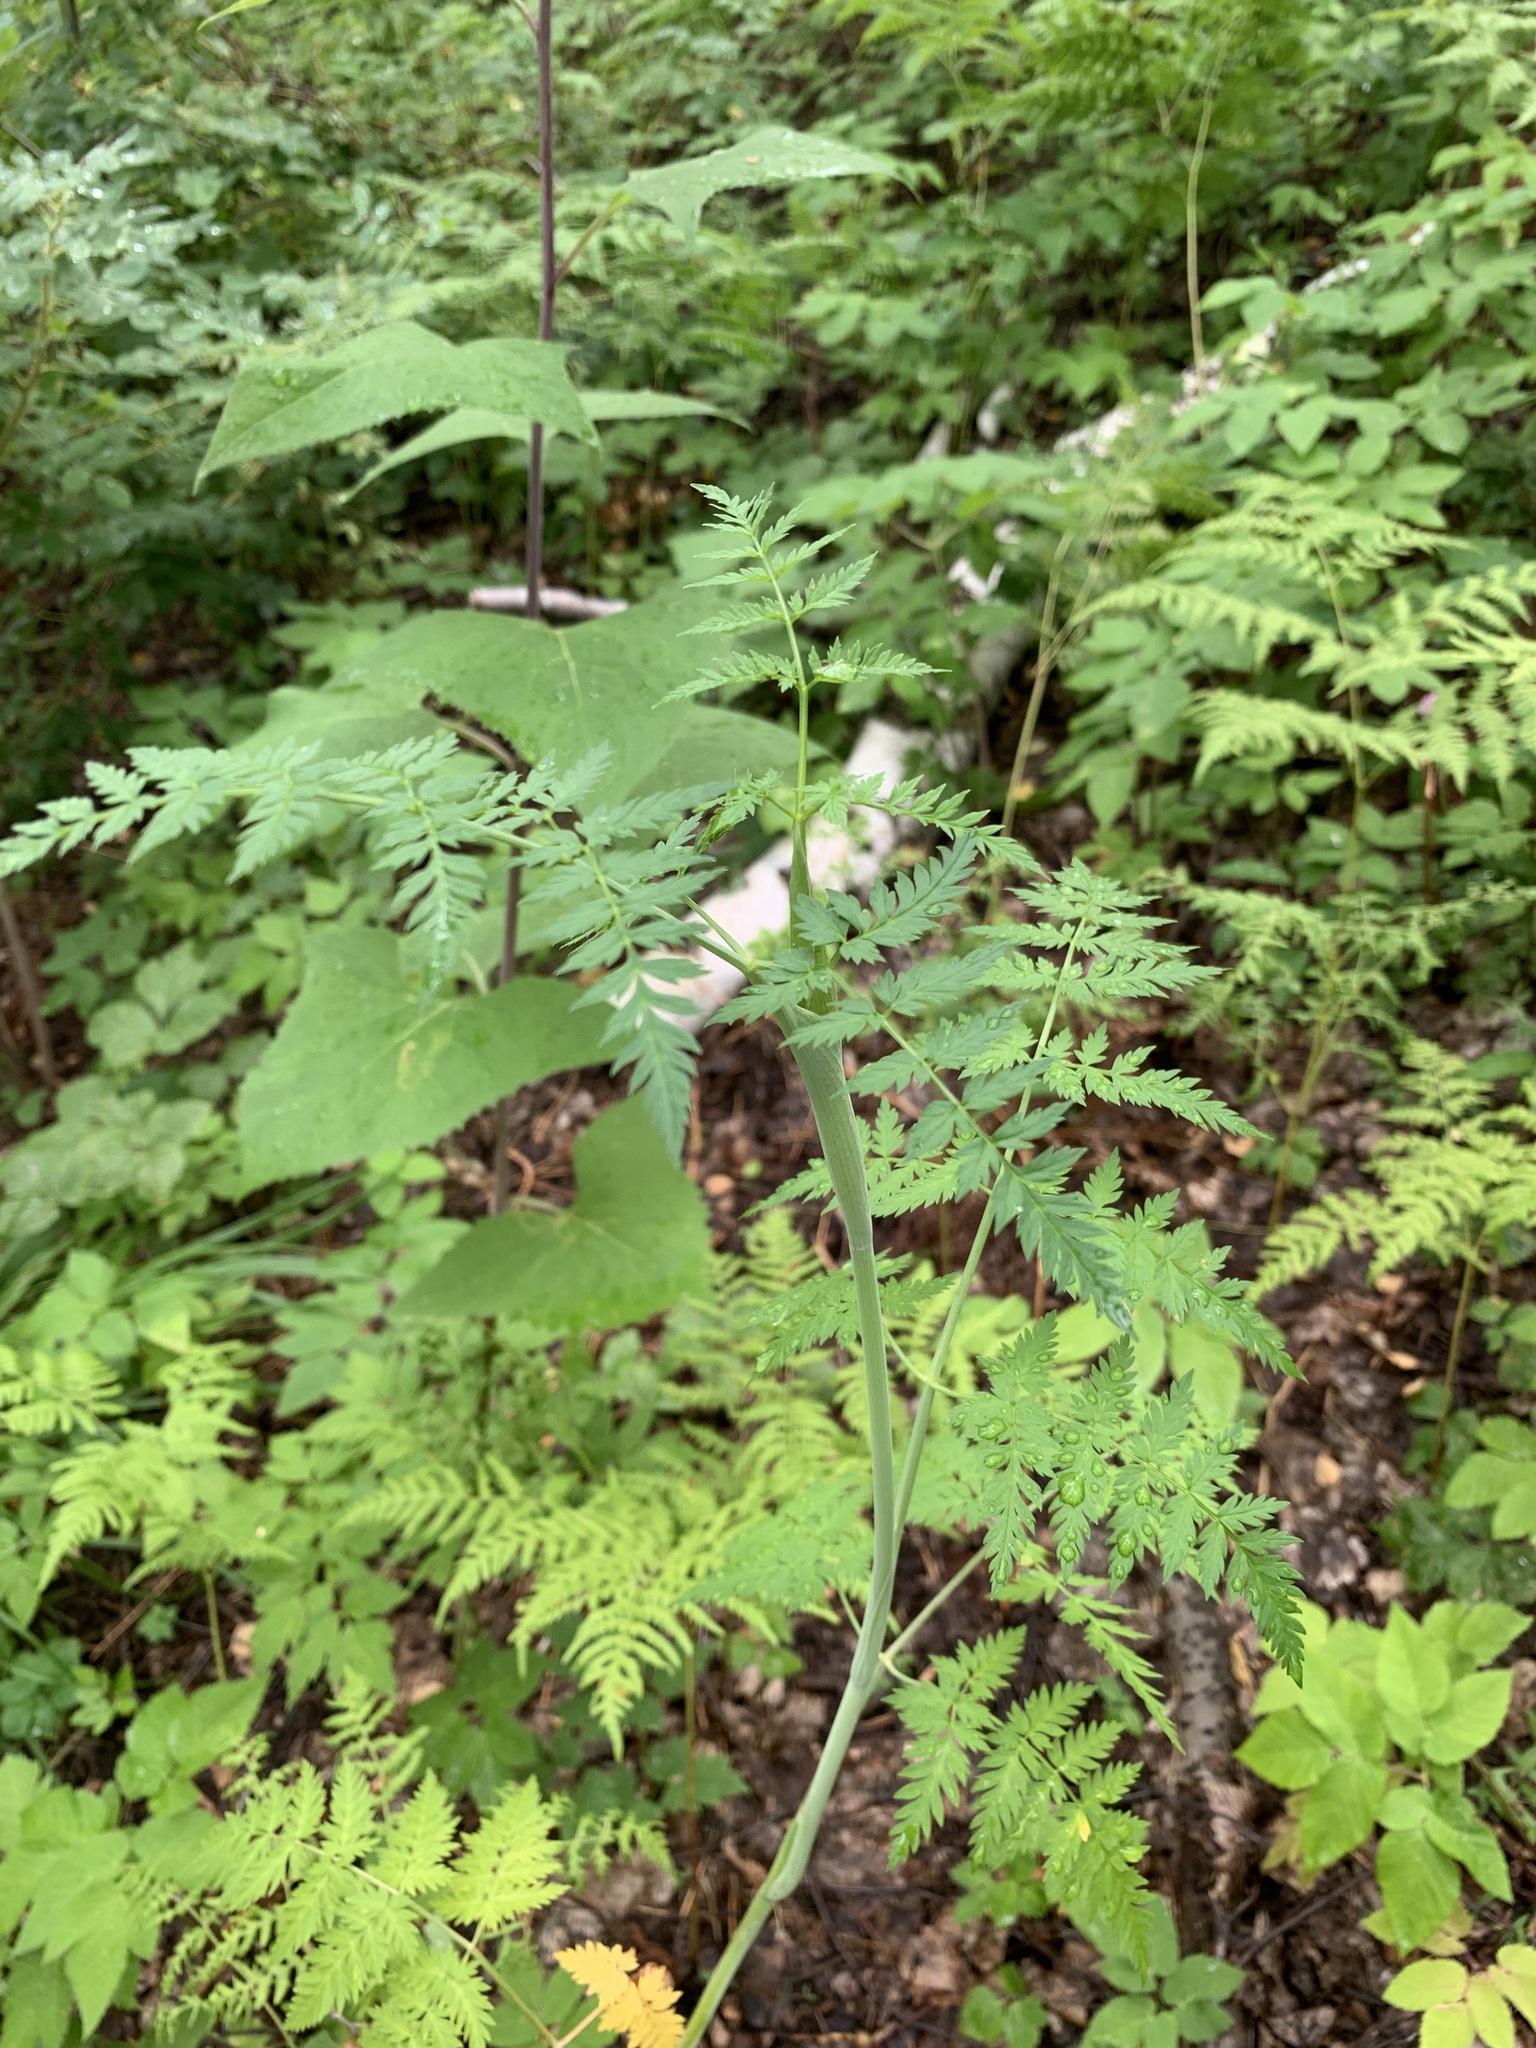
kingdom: Plantae
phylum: Tracheophyta
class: Magnoliopsida
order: Apiales
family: Apiaceae
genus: Conioselinum
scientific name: Conioselinum tataricum
